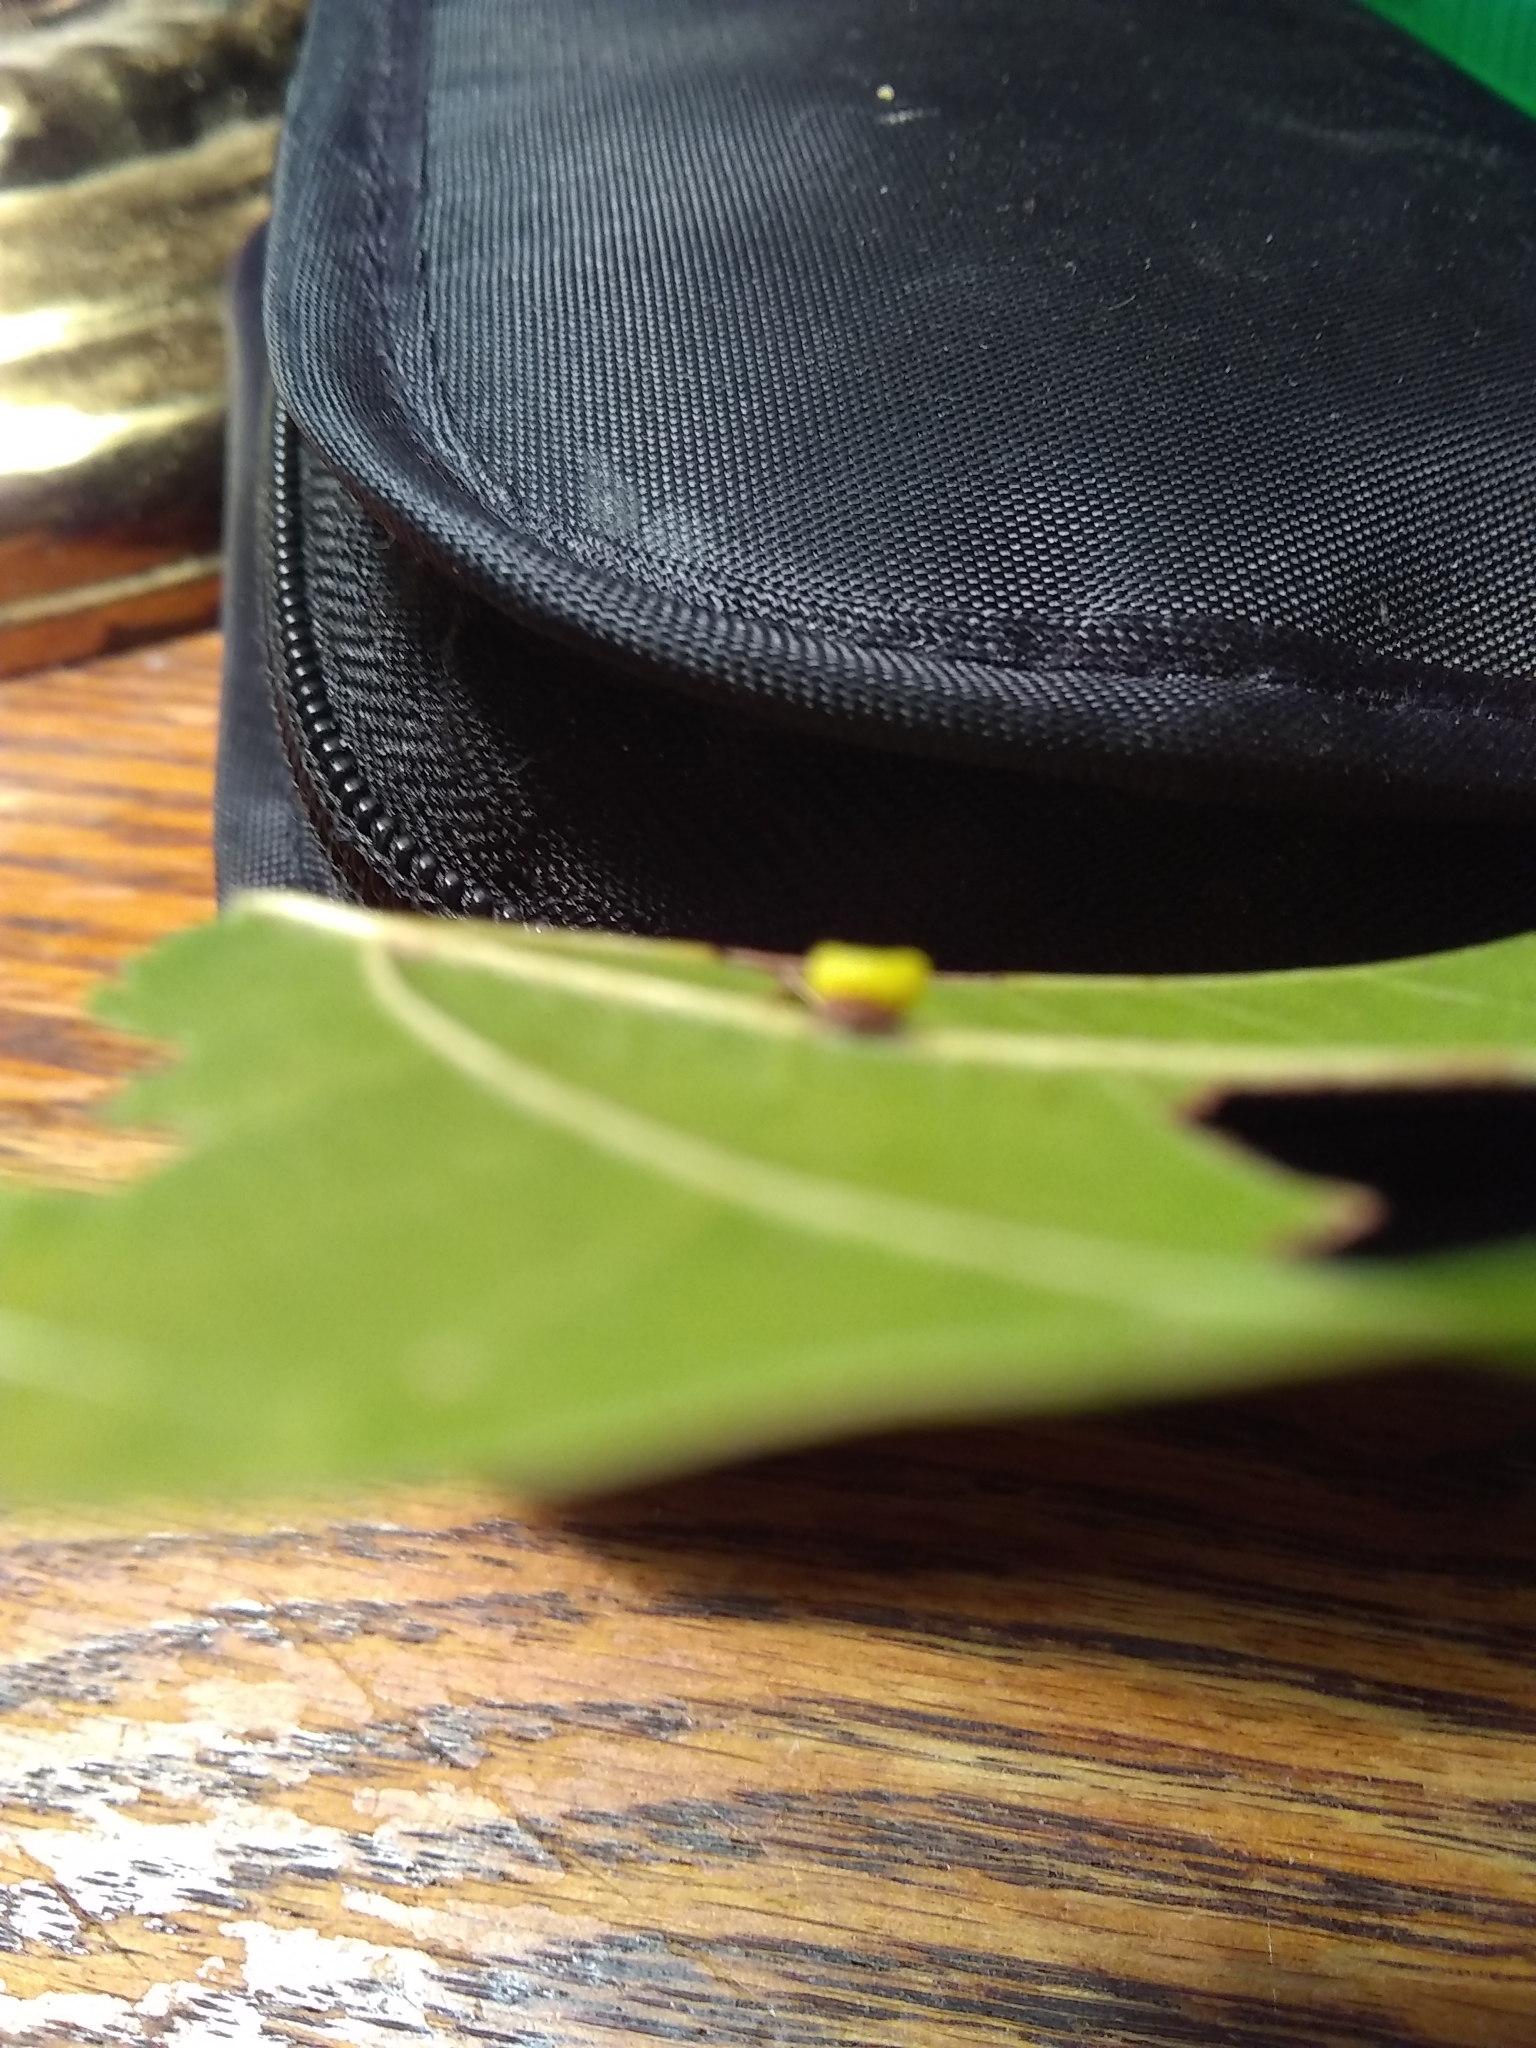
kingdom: Animalia
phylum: Arthropoda
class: Insecta
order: Hymenoptera
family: Cynipidae
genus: Kokkocynips
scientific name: Kokkocynips rileyi
